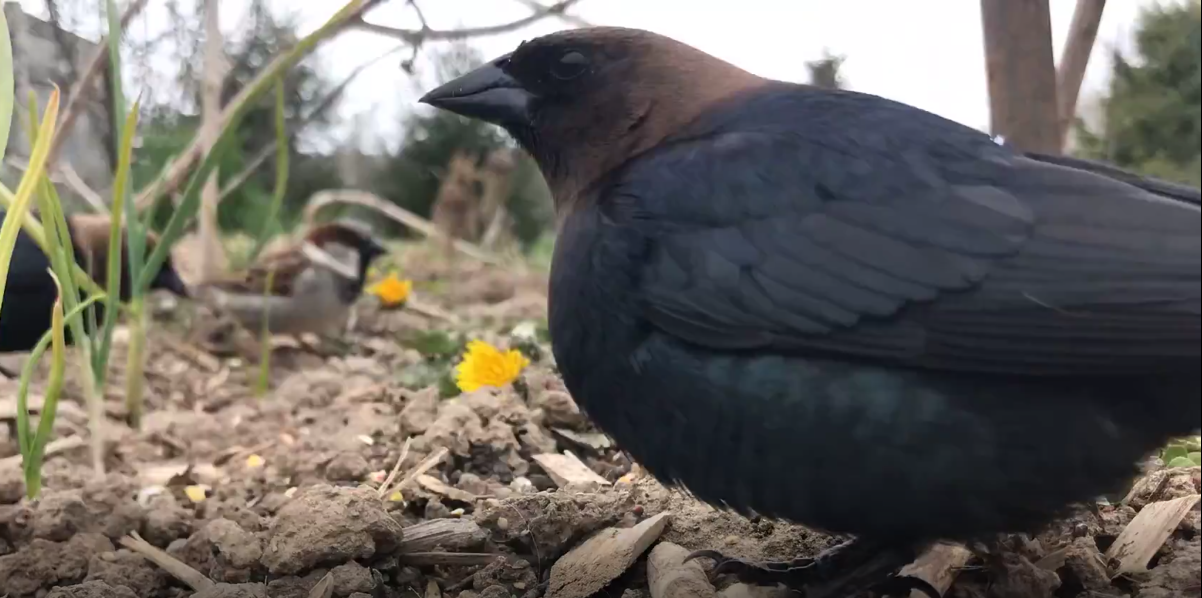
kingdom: Animalia
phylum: Chordata
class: Aves
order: Passeriformes
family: Icteridae
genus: Molothrus
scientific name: Molothrus ater
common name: Brown-headed cowbird
